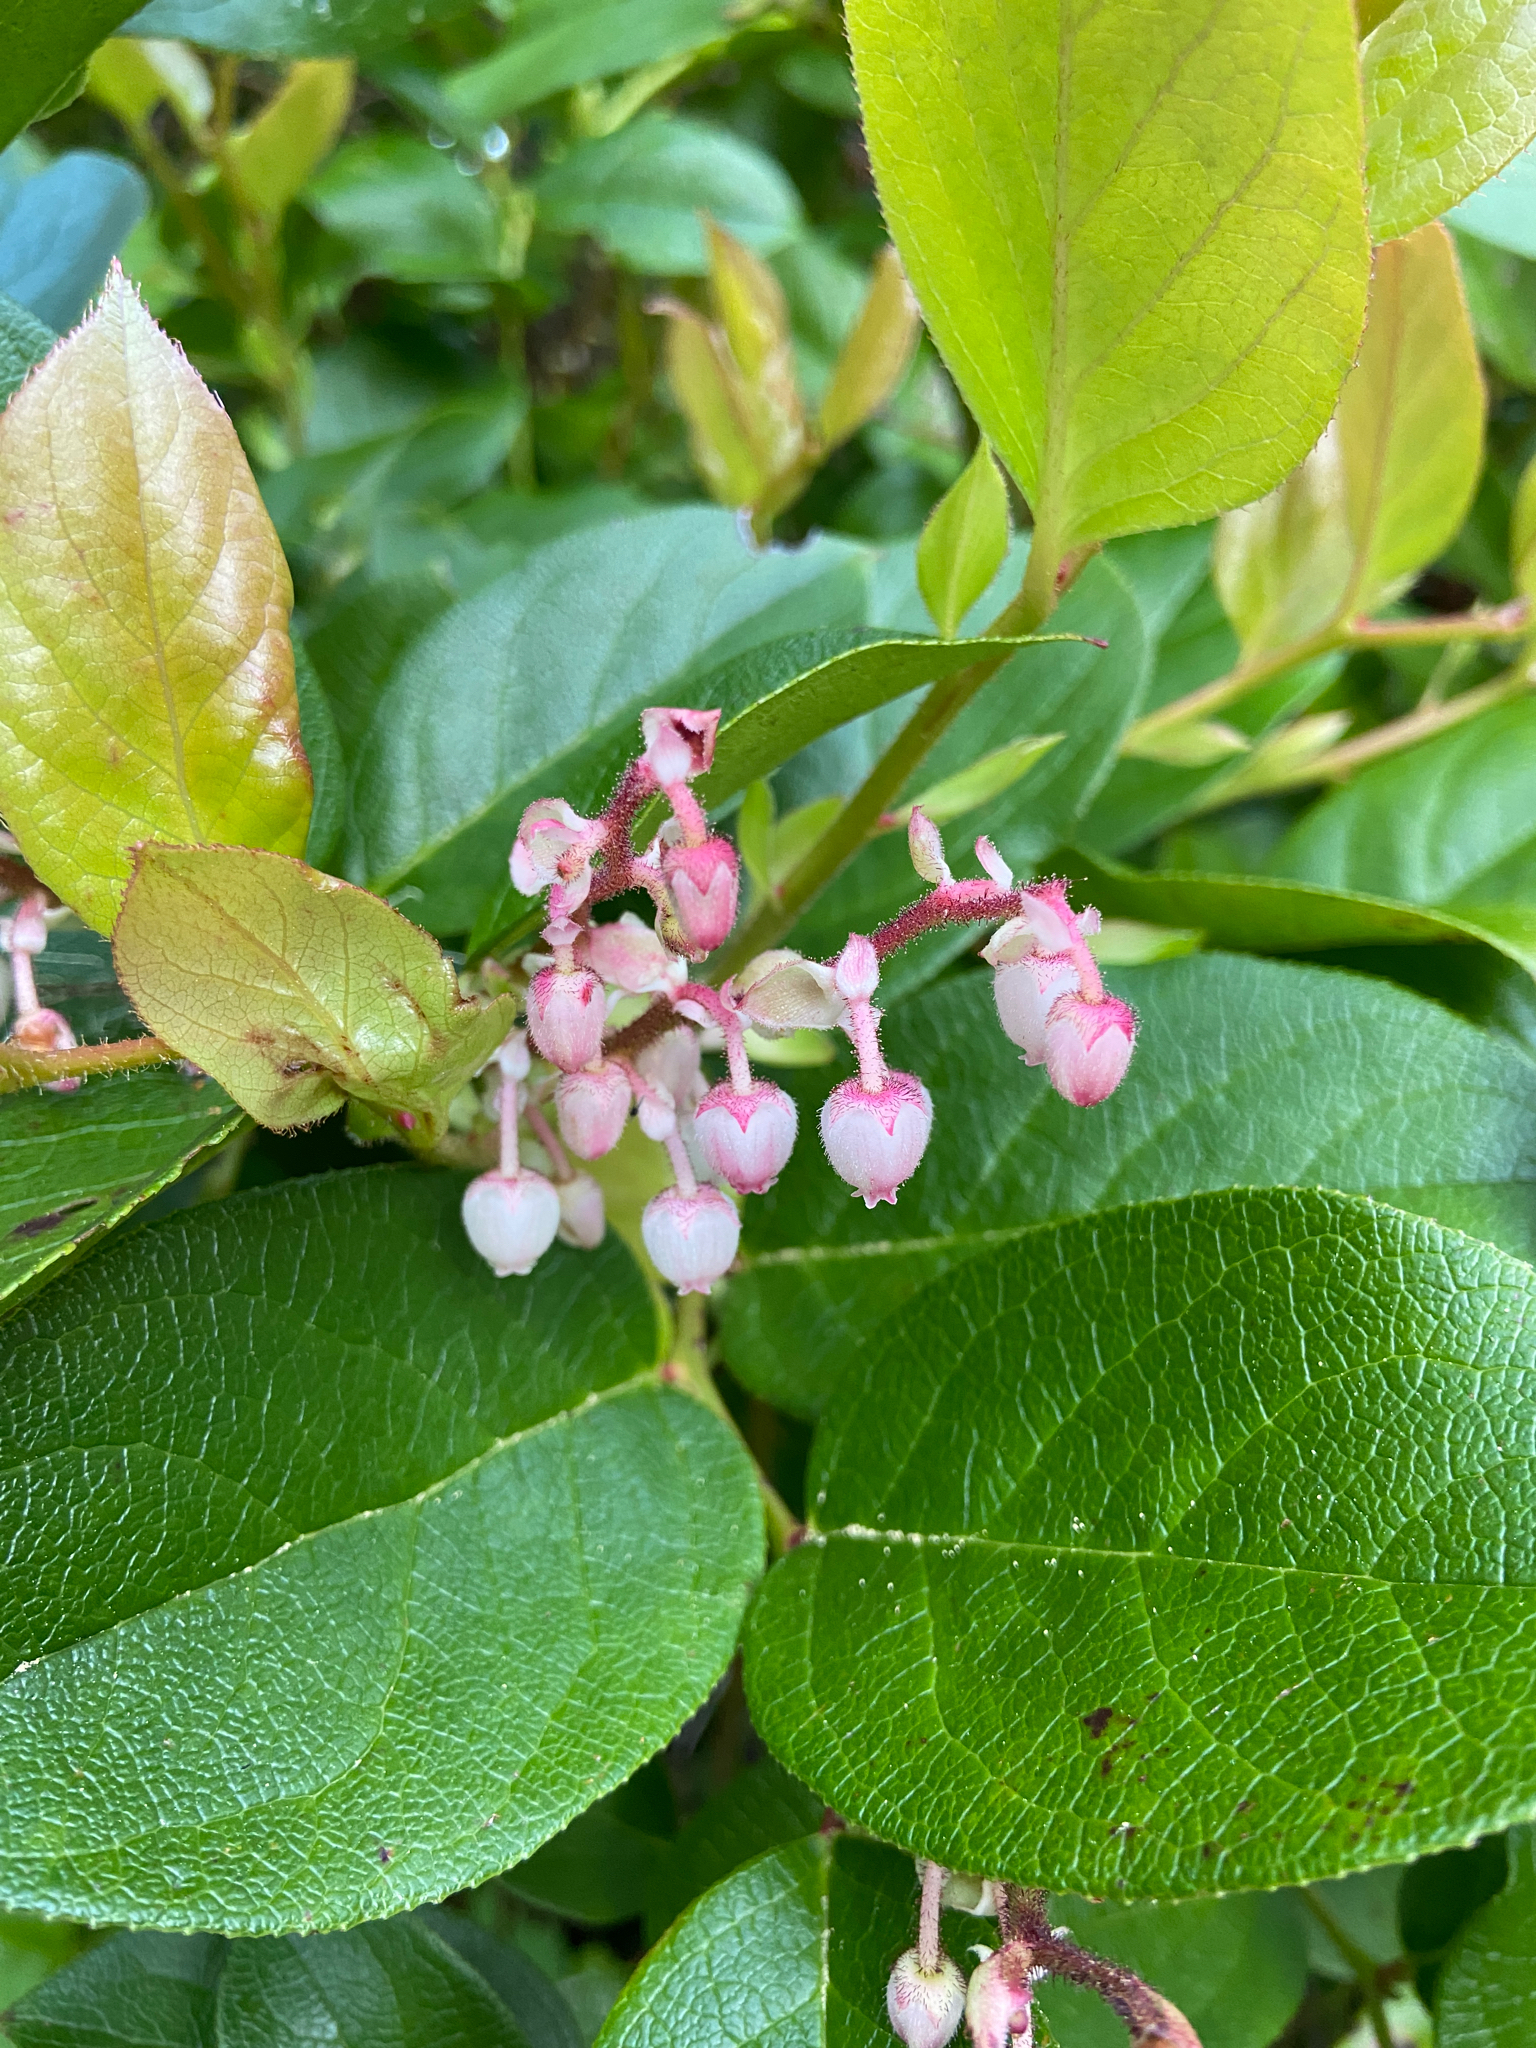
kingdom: Plantae
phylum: Tracheophyta
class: Magnoliopsida
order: Ericales
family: Ericaceae
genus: Gaultheria
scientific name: Gaultheria shallon
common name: Shallon
